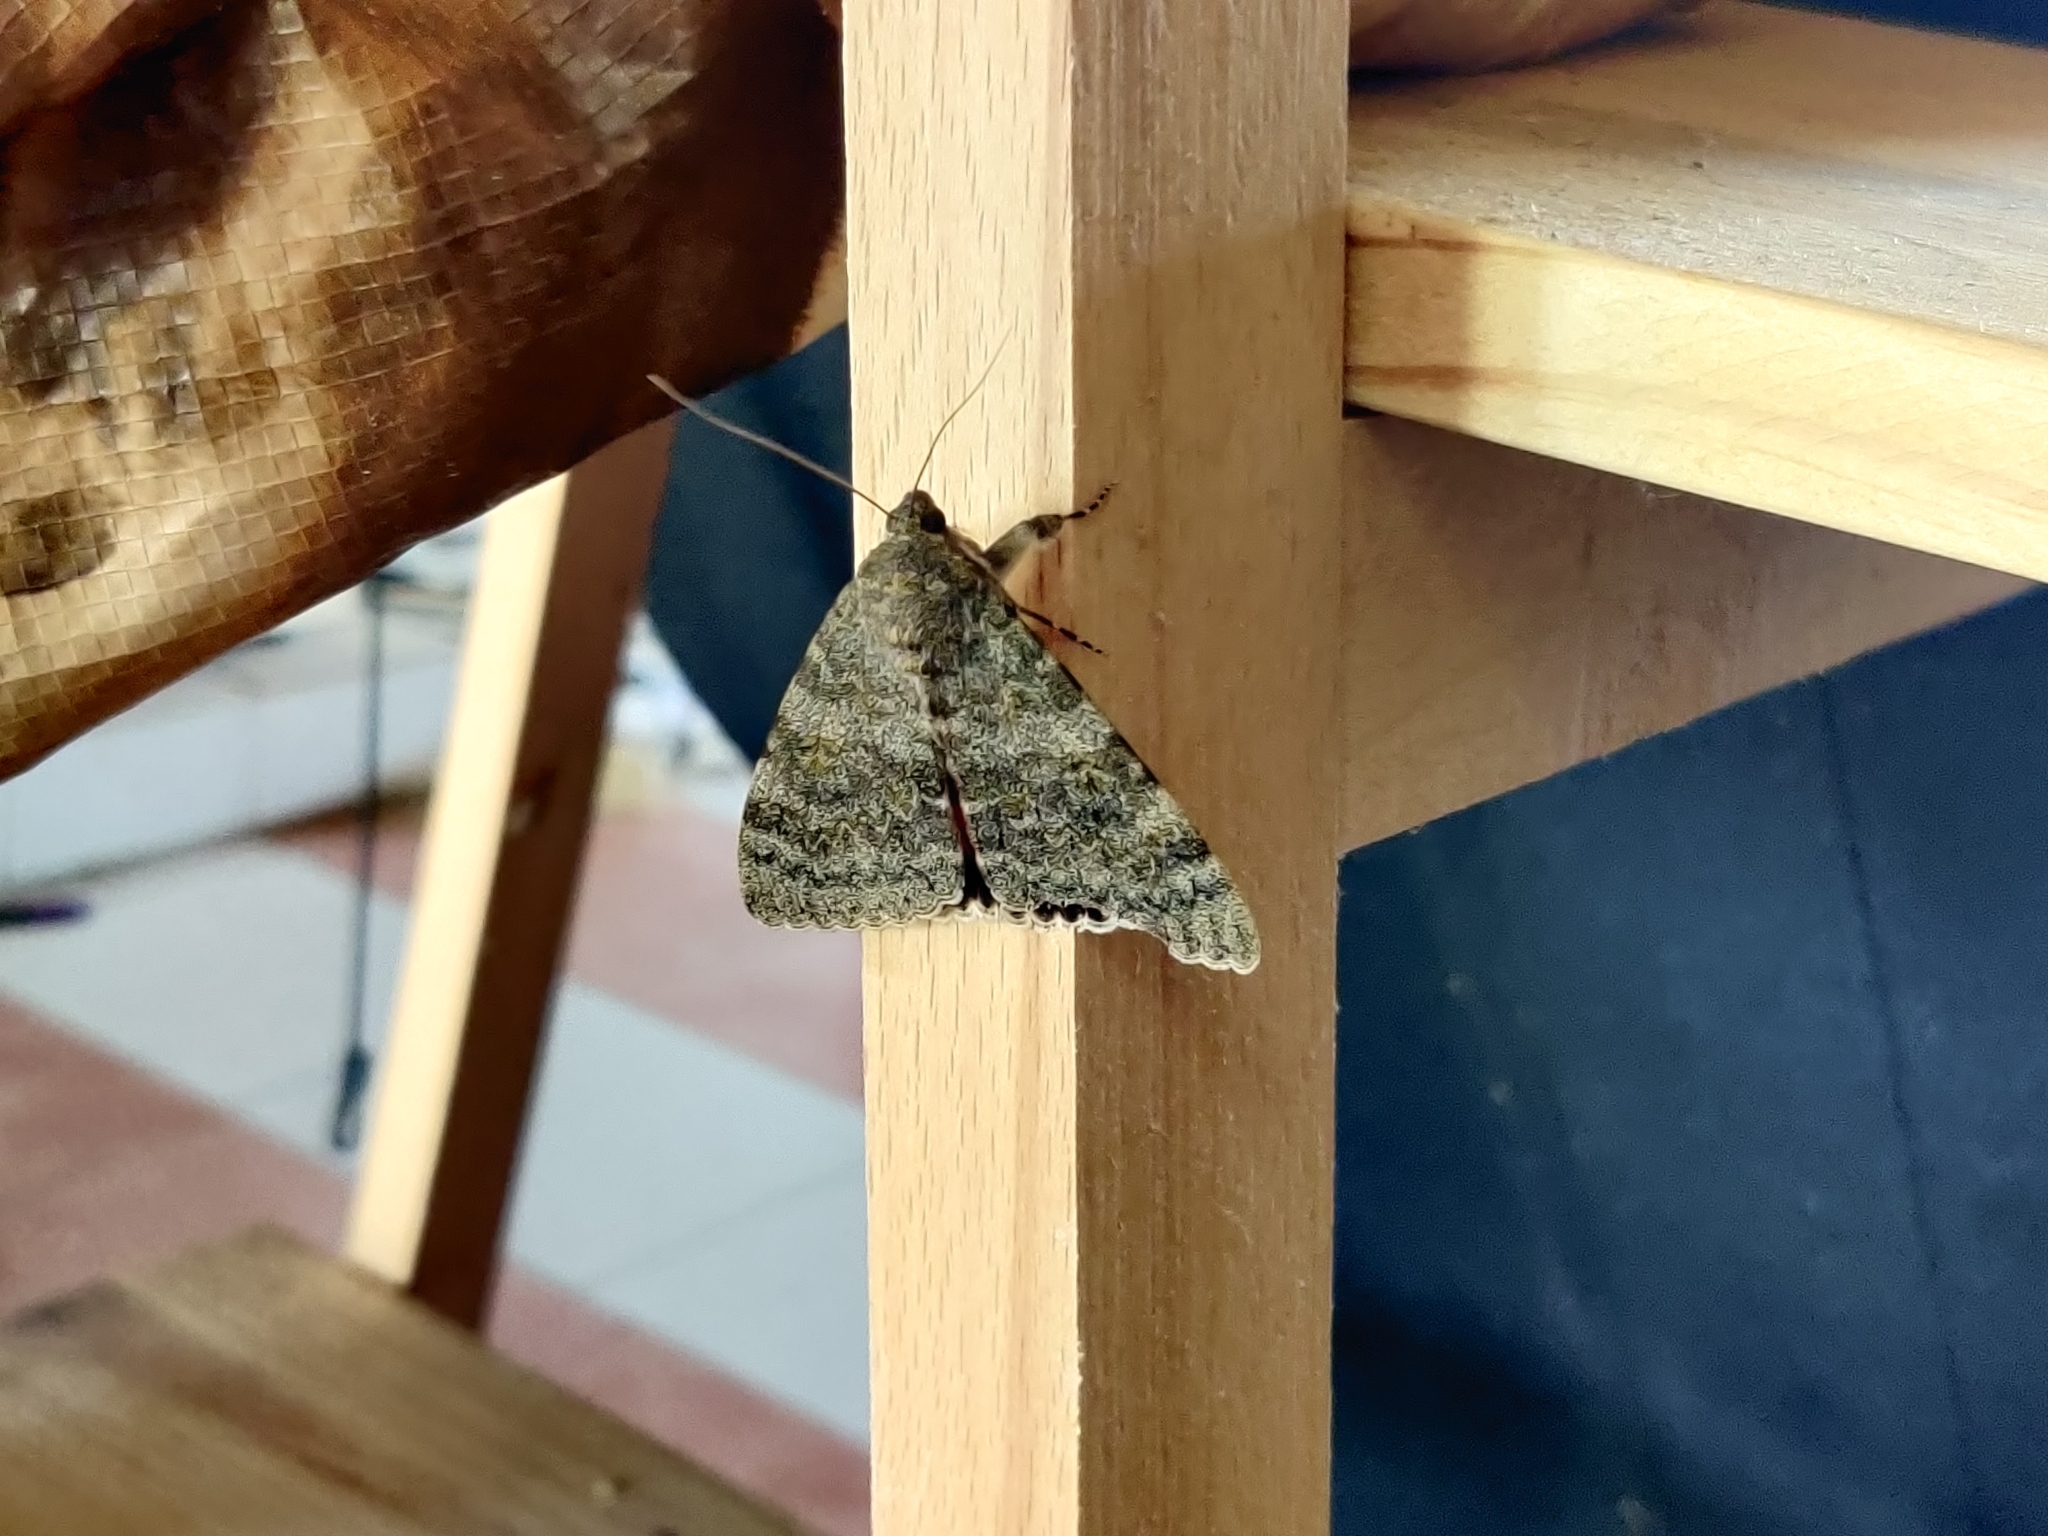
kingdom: Animalia
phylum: Arthropoda
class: Insecta
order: Lepidoptera
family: Erebidae
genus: Catocala
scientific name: Catocala elocata
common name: French red underwing
